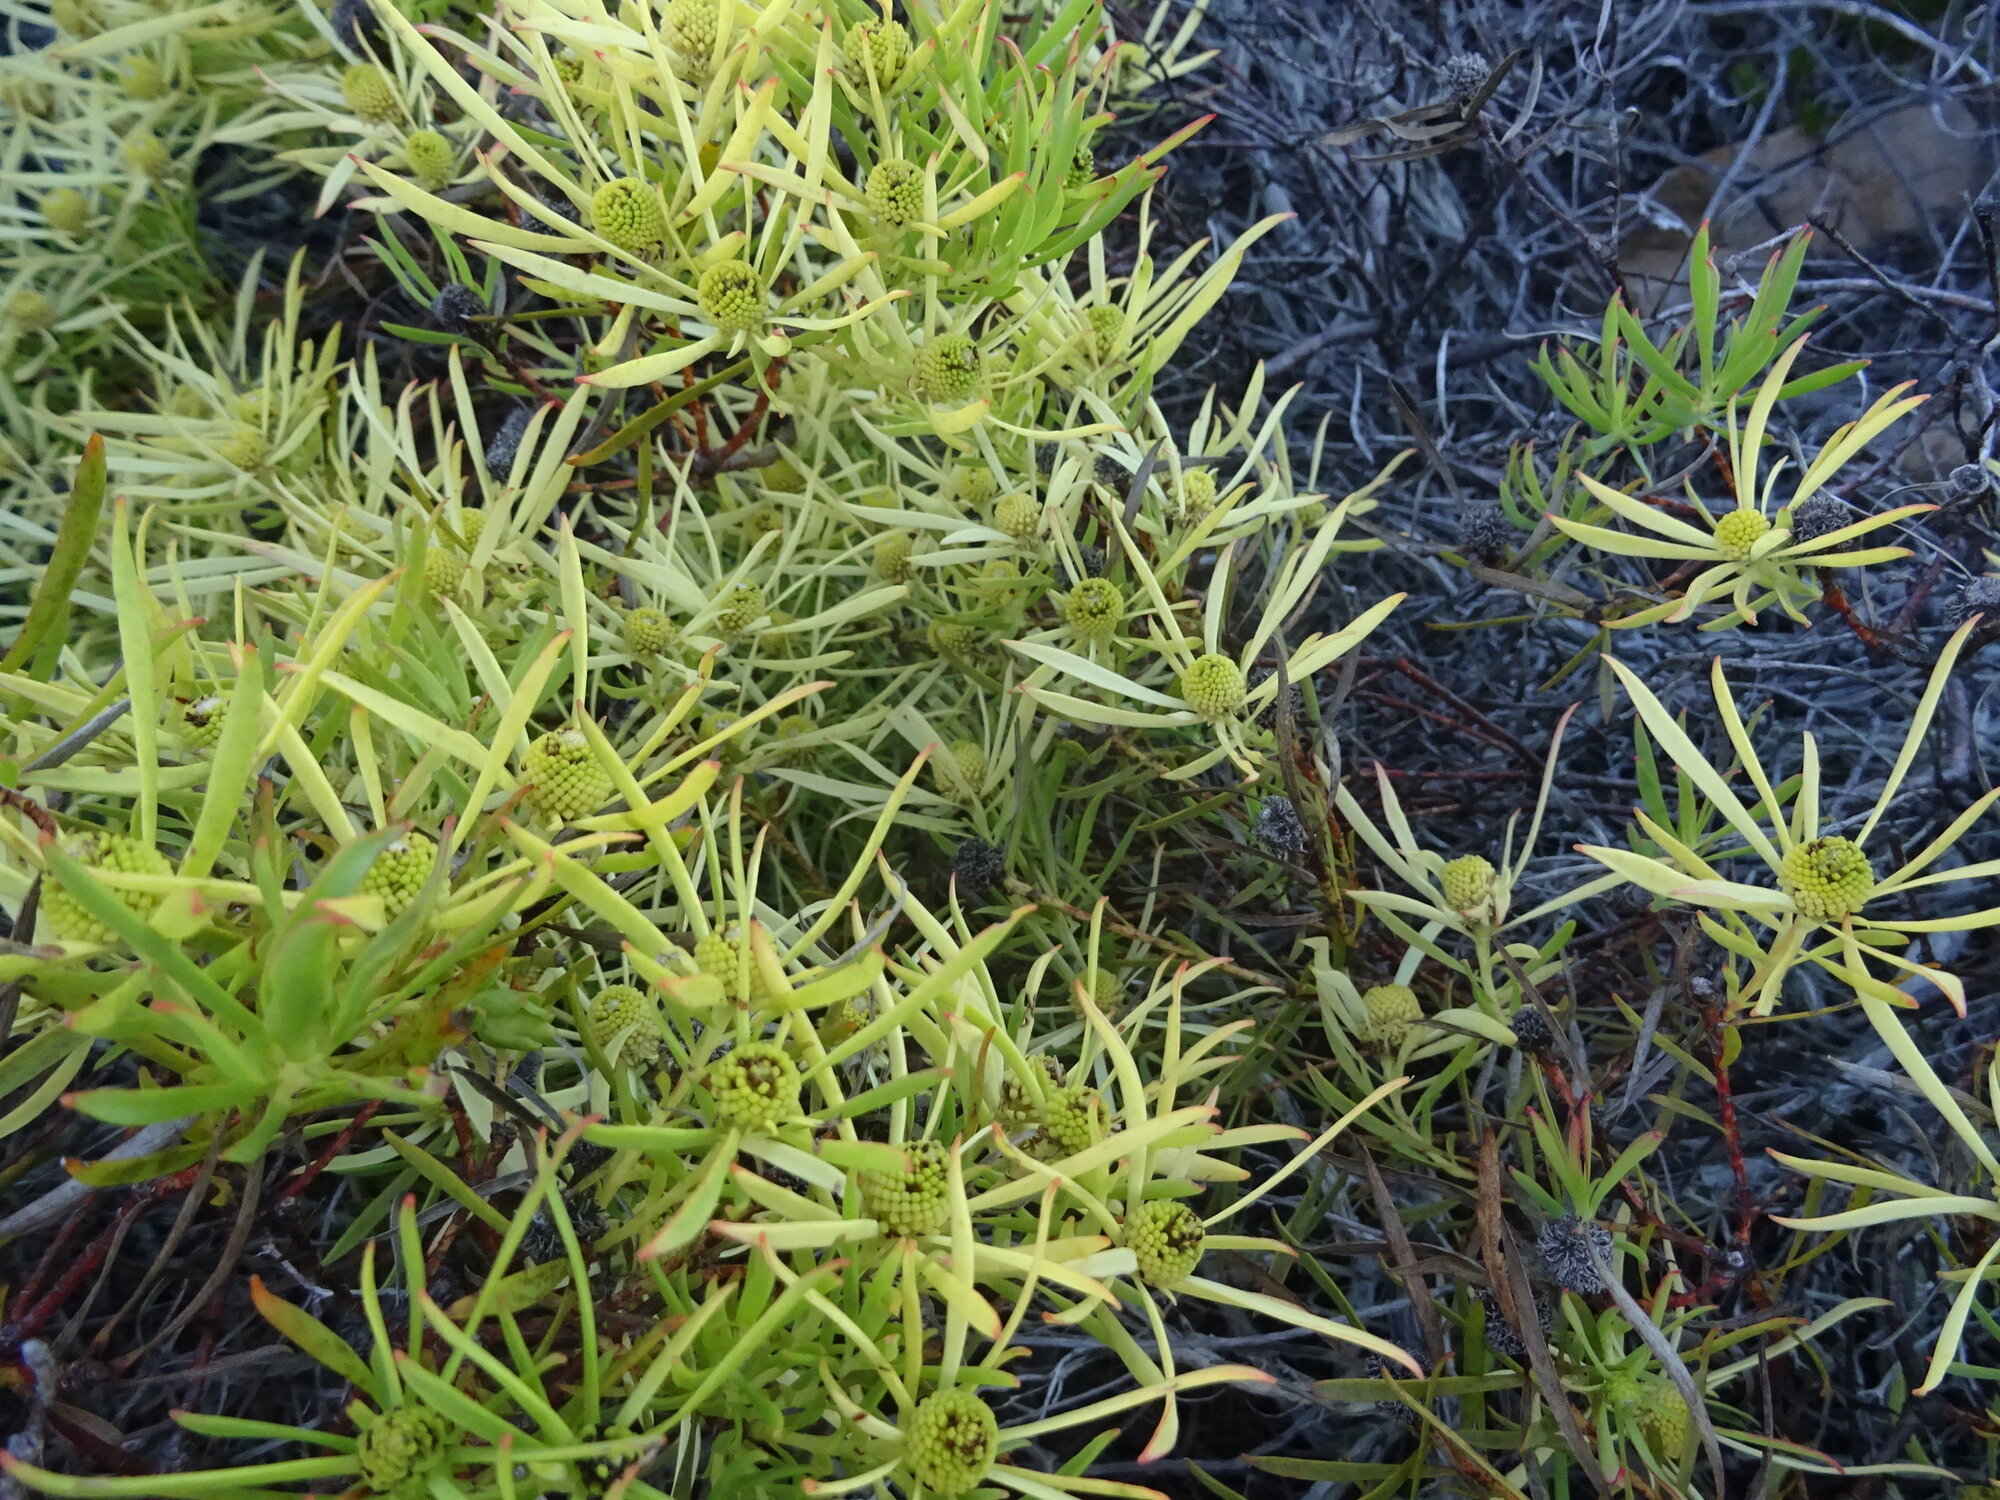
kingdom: Plantae
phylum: Tracheophyta
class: Magnoliopsida
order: Proteales
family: Proteaceae
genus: Leucadendron
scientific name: Leucadendron salignum
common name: Common sunshine conebush
